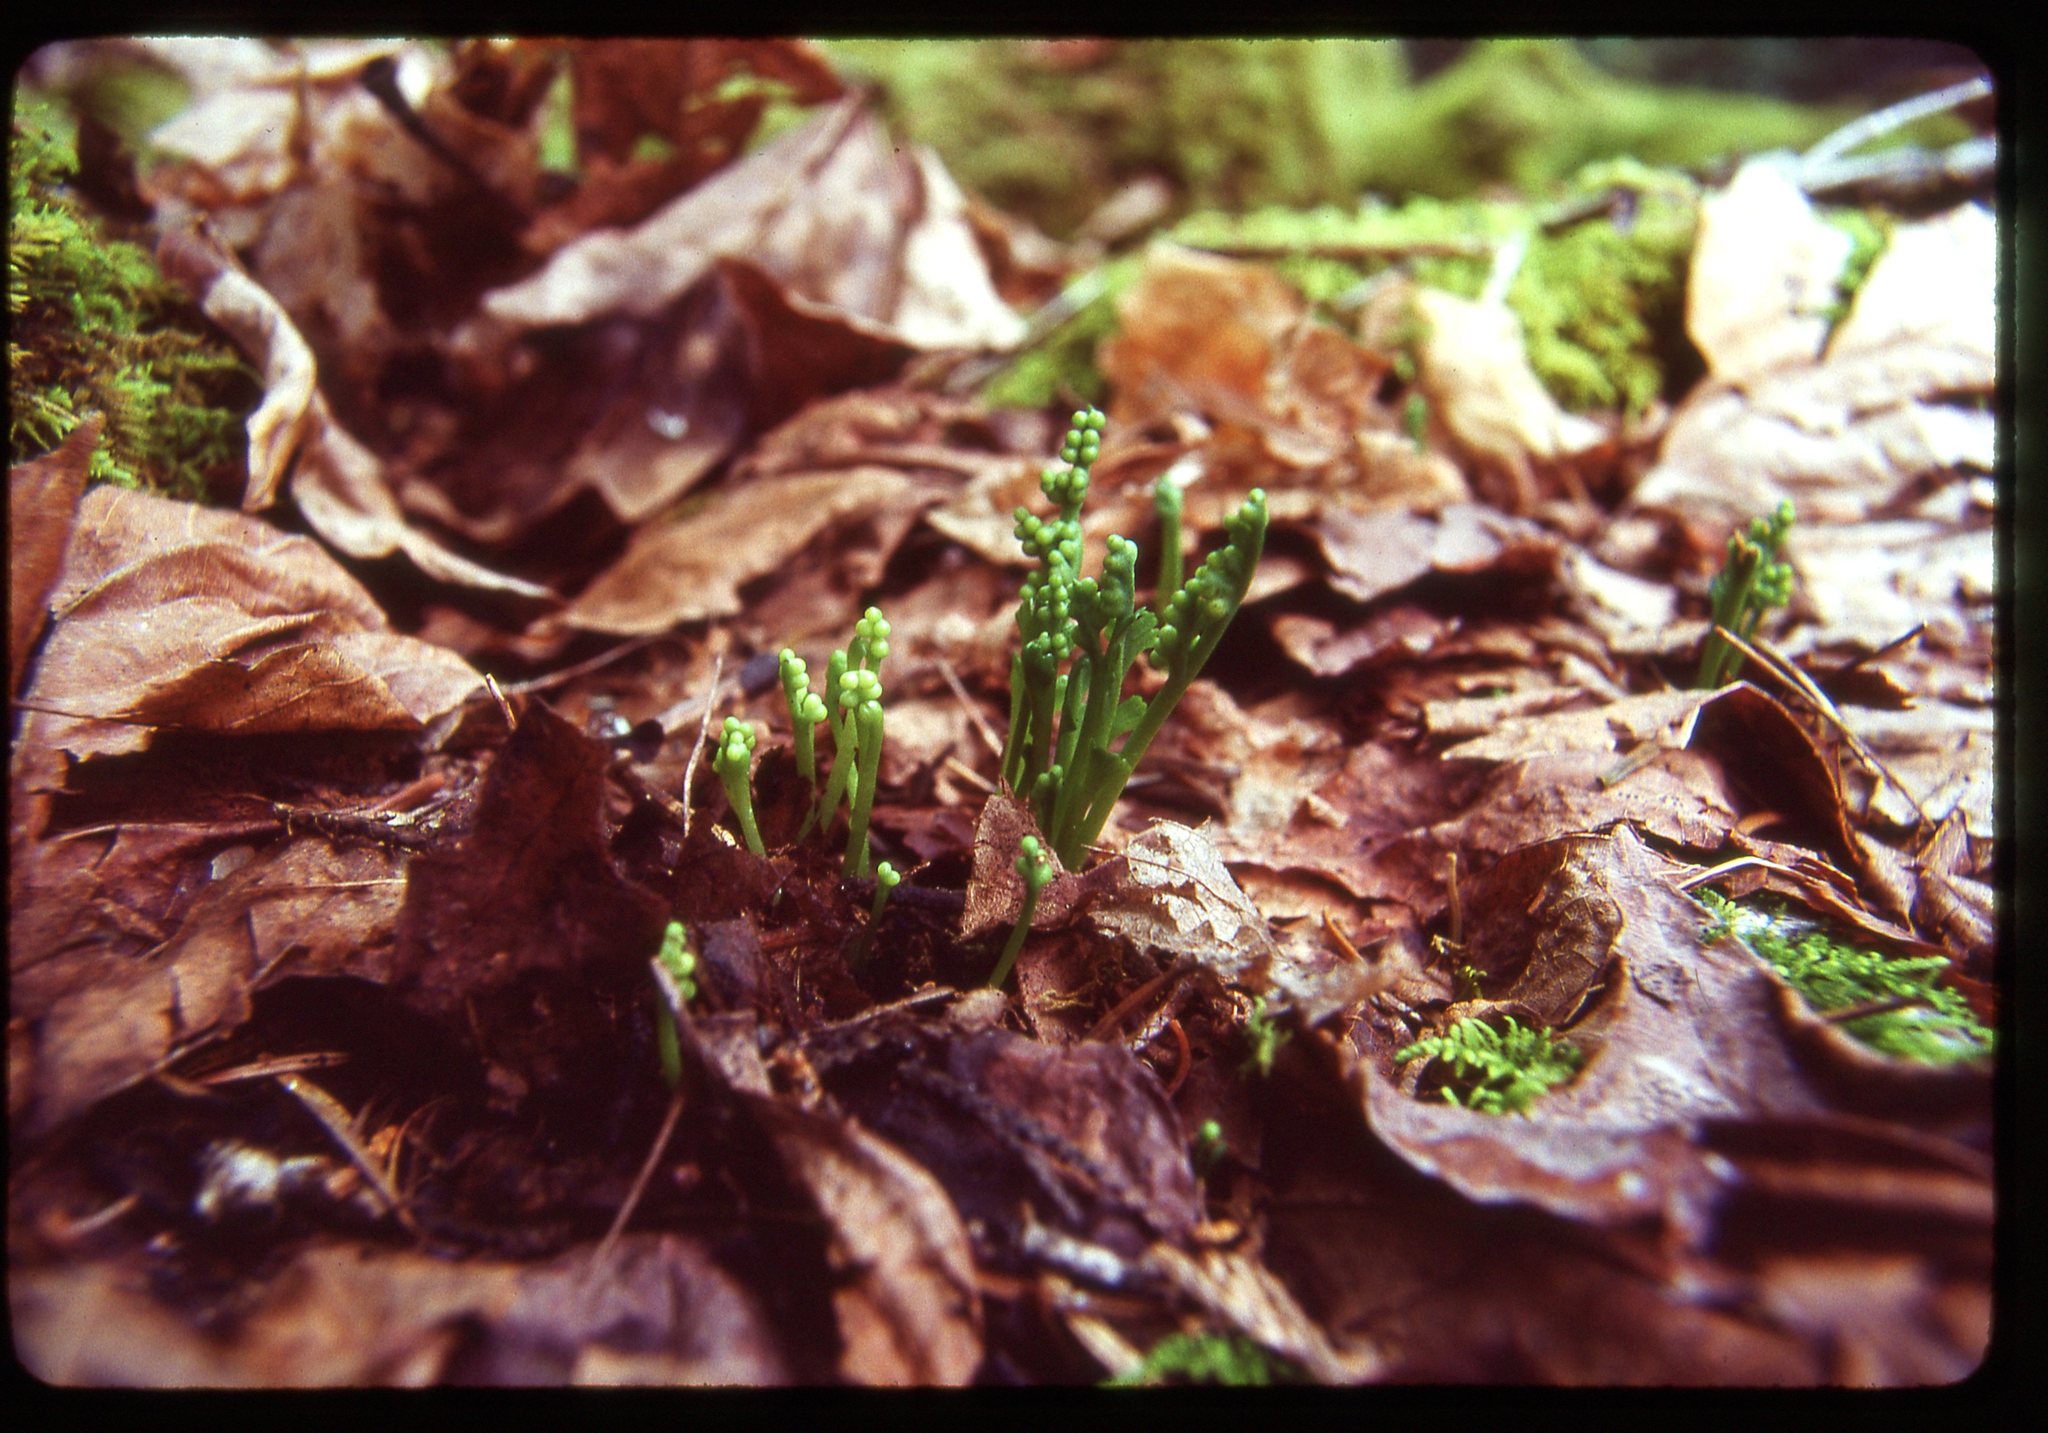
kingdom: Plantae
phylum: Tracheophyta
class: Polypodiopsida
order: Ophioglossales
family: Ophioglossaceae
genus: Botrychium
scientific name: Botrychium montanum
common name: Mountain moonwort
